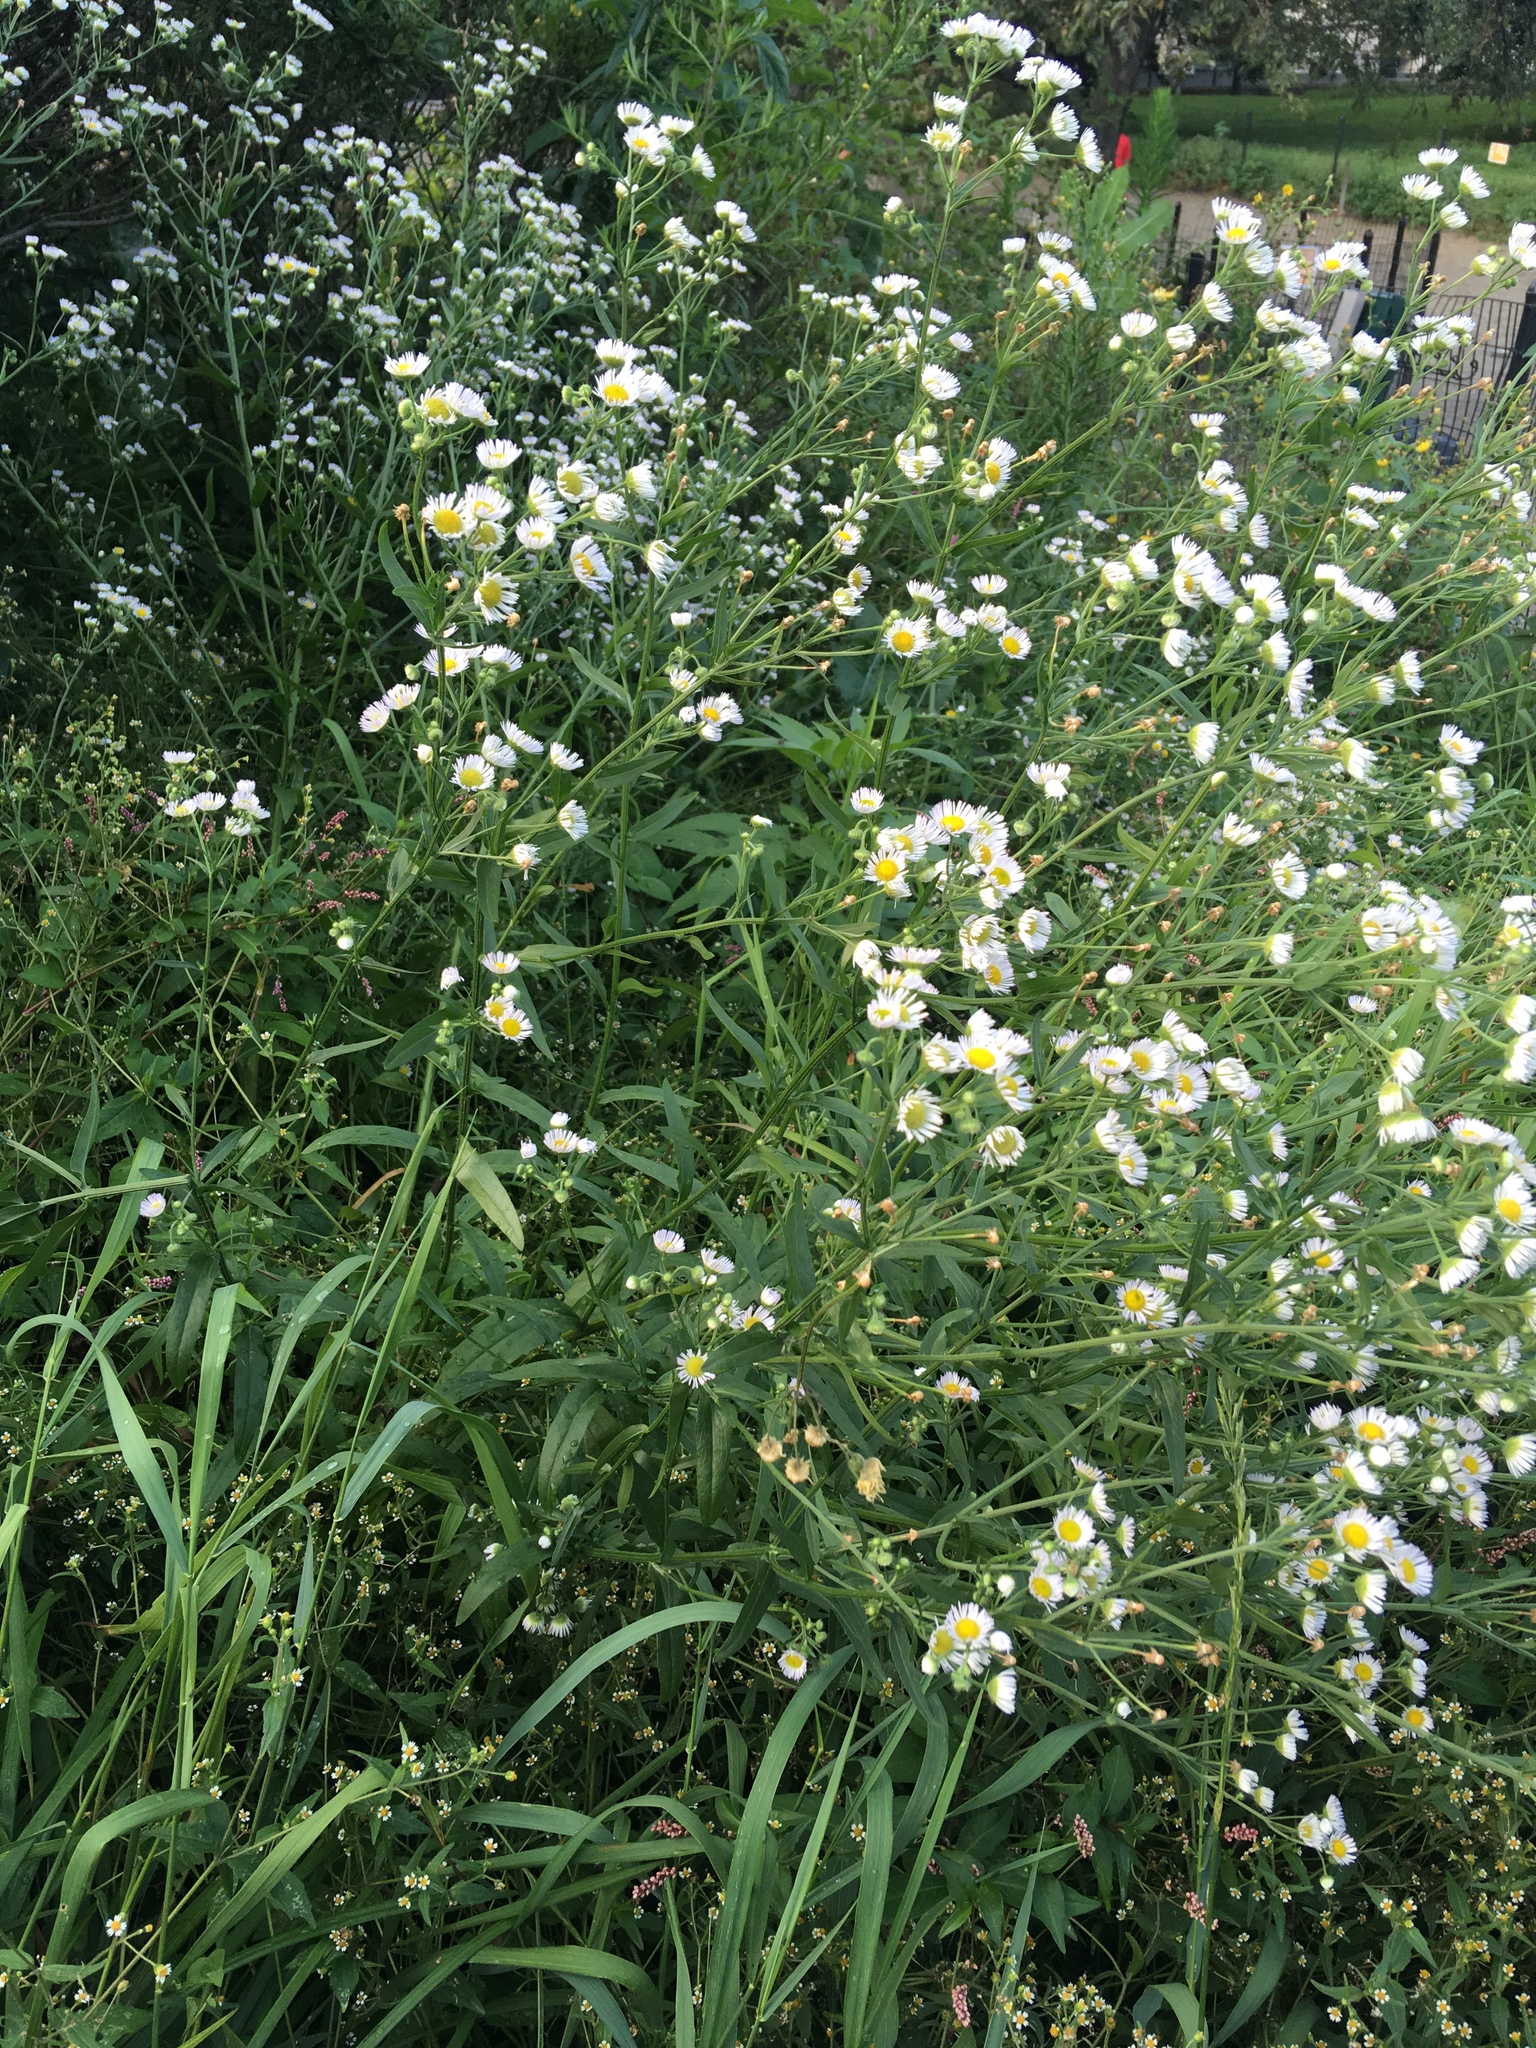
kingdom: Plantae
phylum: Tracheophyta
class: Magnoliopsida
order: Asterales
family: Asteraceae
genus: Erigeron
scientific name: Erigeron strigosus
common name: Common eastern fleabane
